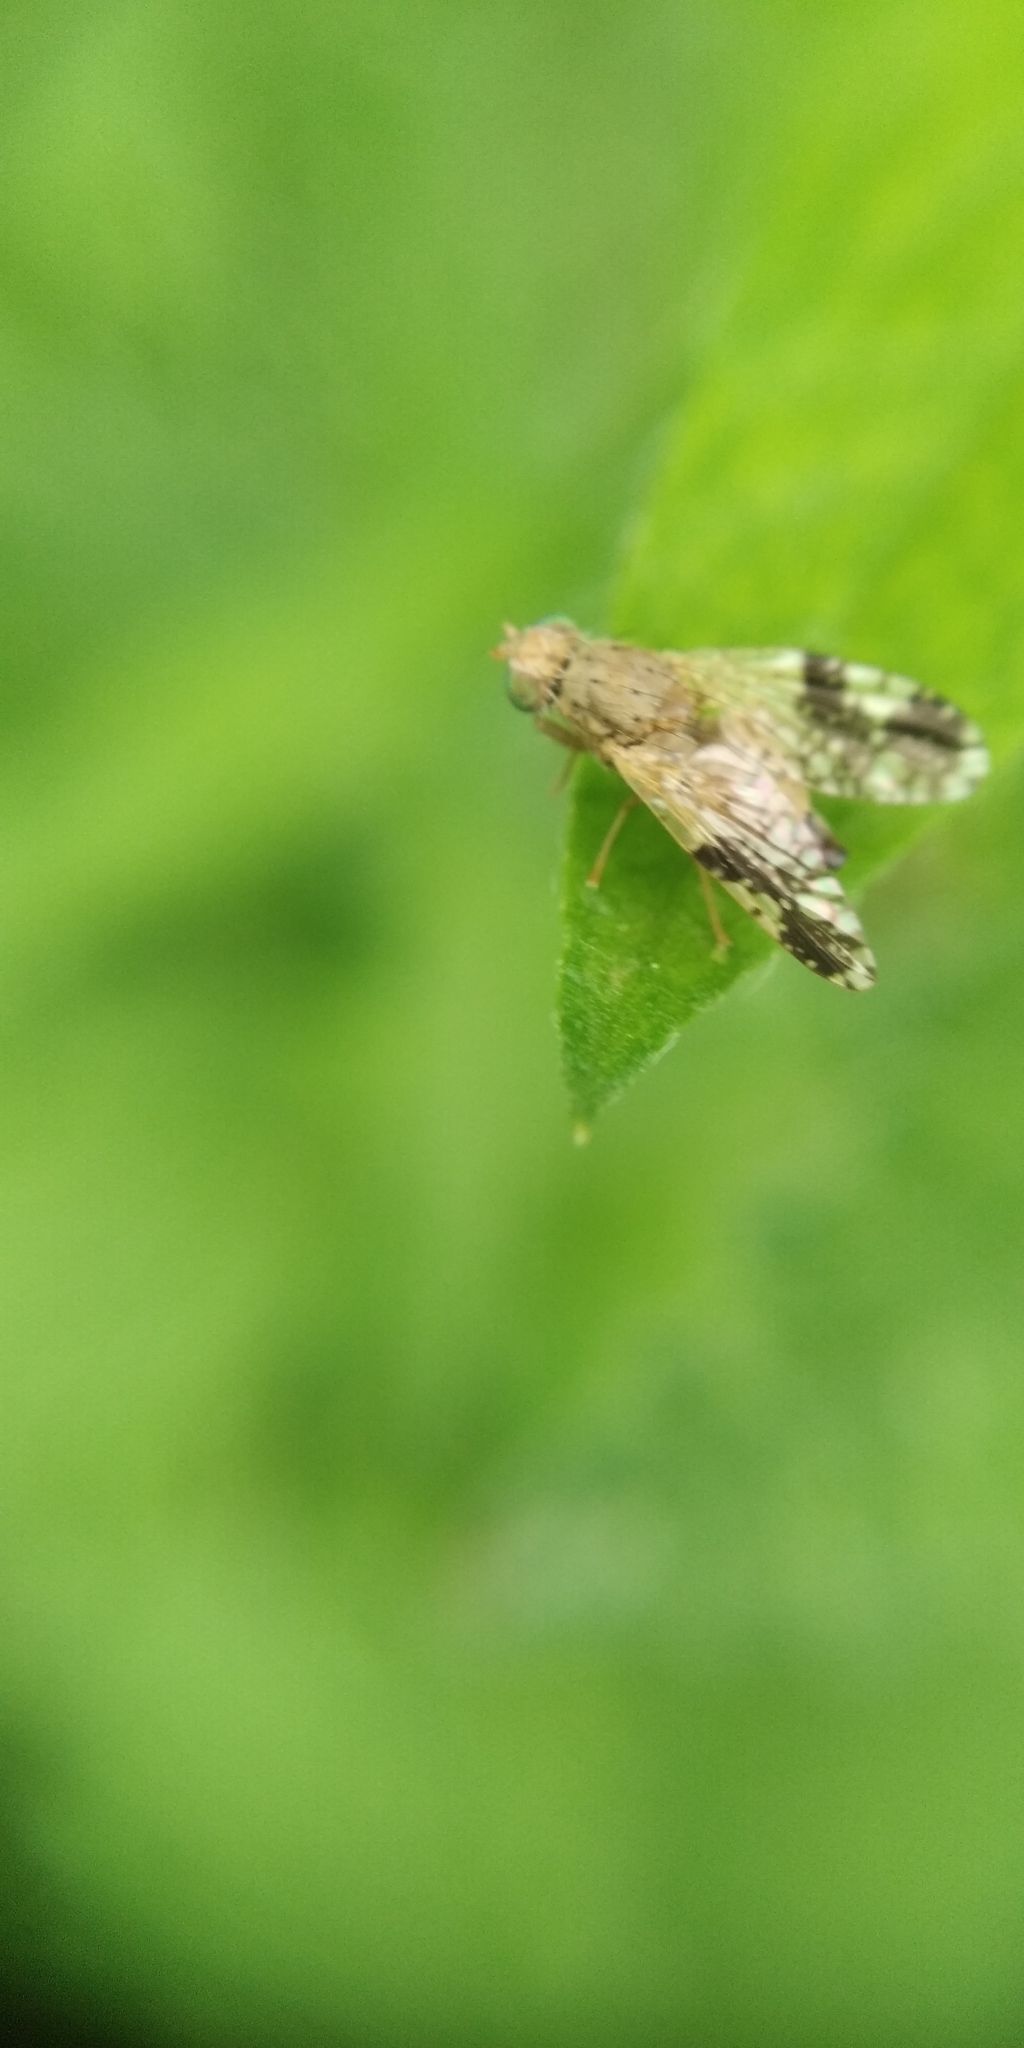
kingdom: Animalia
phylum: Arthropoda
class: Insecta
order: Diptera
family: Tephritidae
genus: Tephritis
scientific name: Tephritis bardanae
